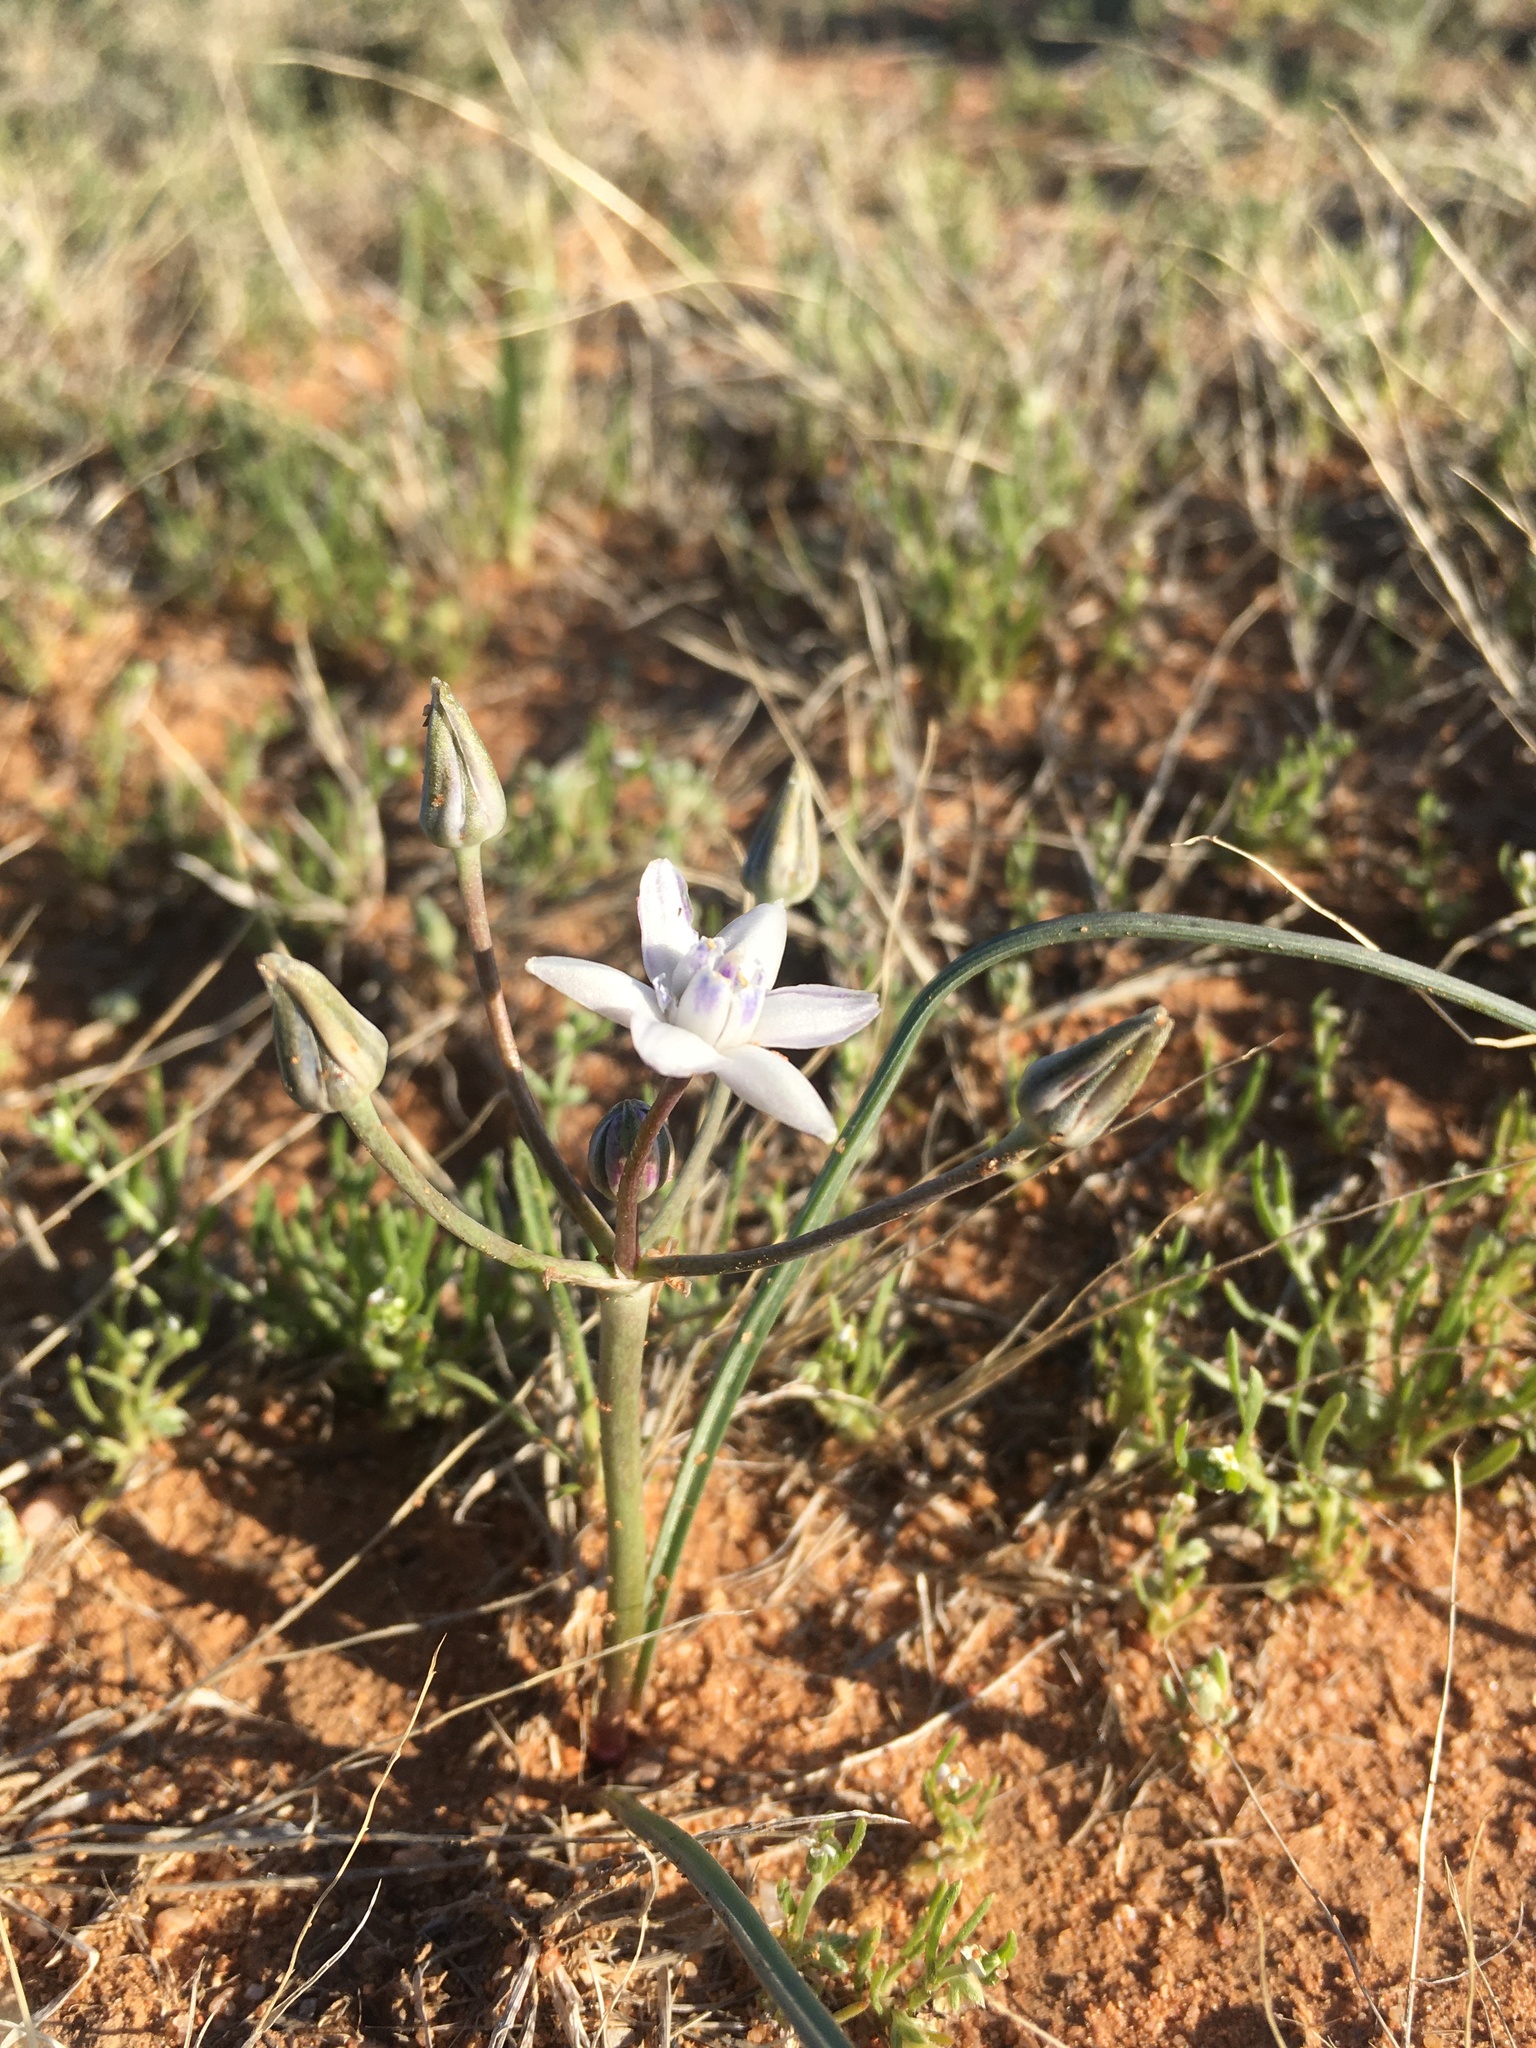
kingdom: Plantae
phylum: Tracheophyta
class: Liliopsida
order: Asparagales
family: Asparagaceae
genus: Muilla
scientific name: Muilla lordsburgana
